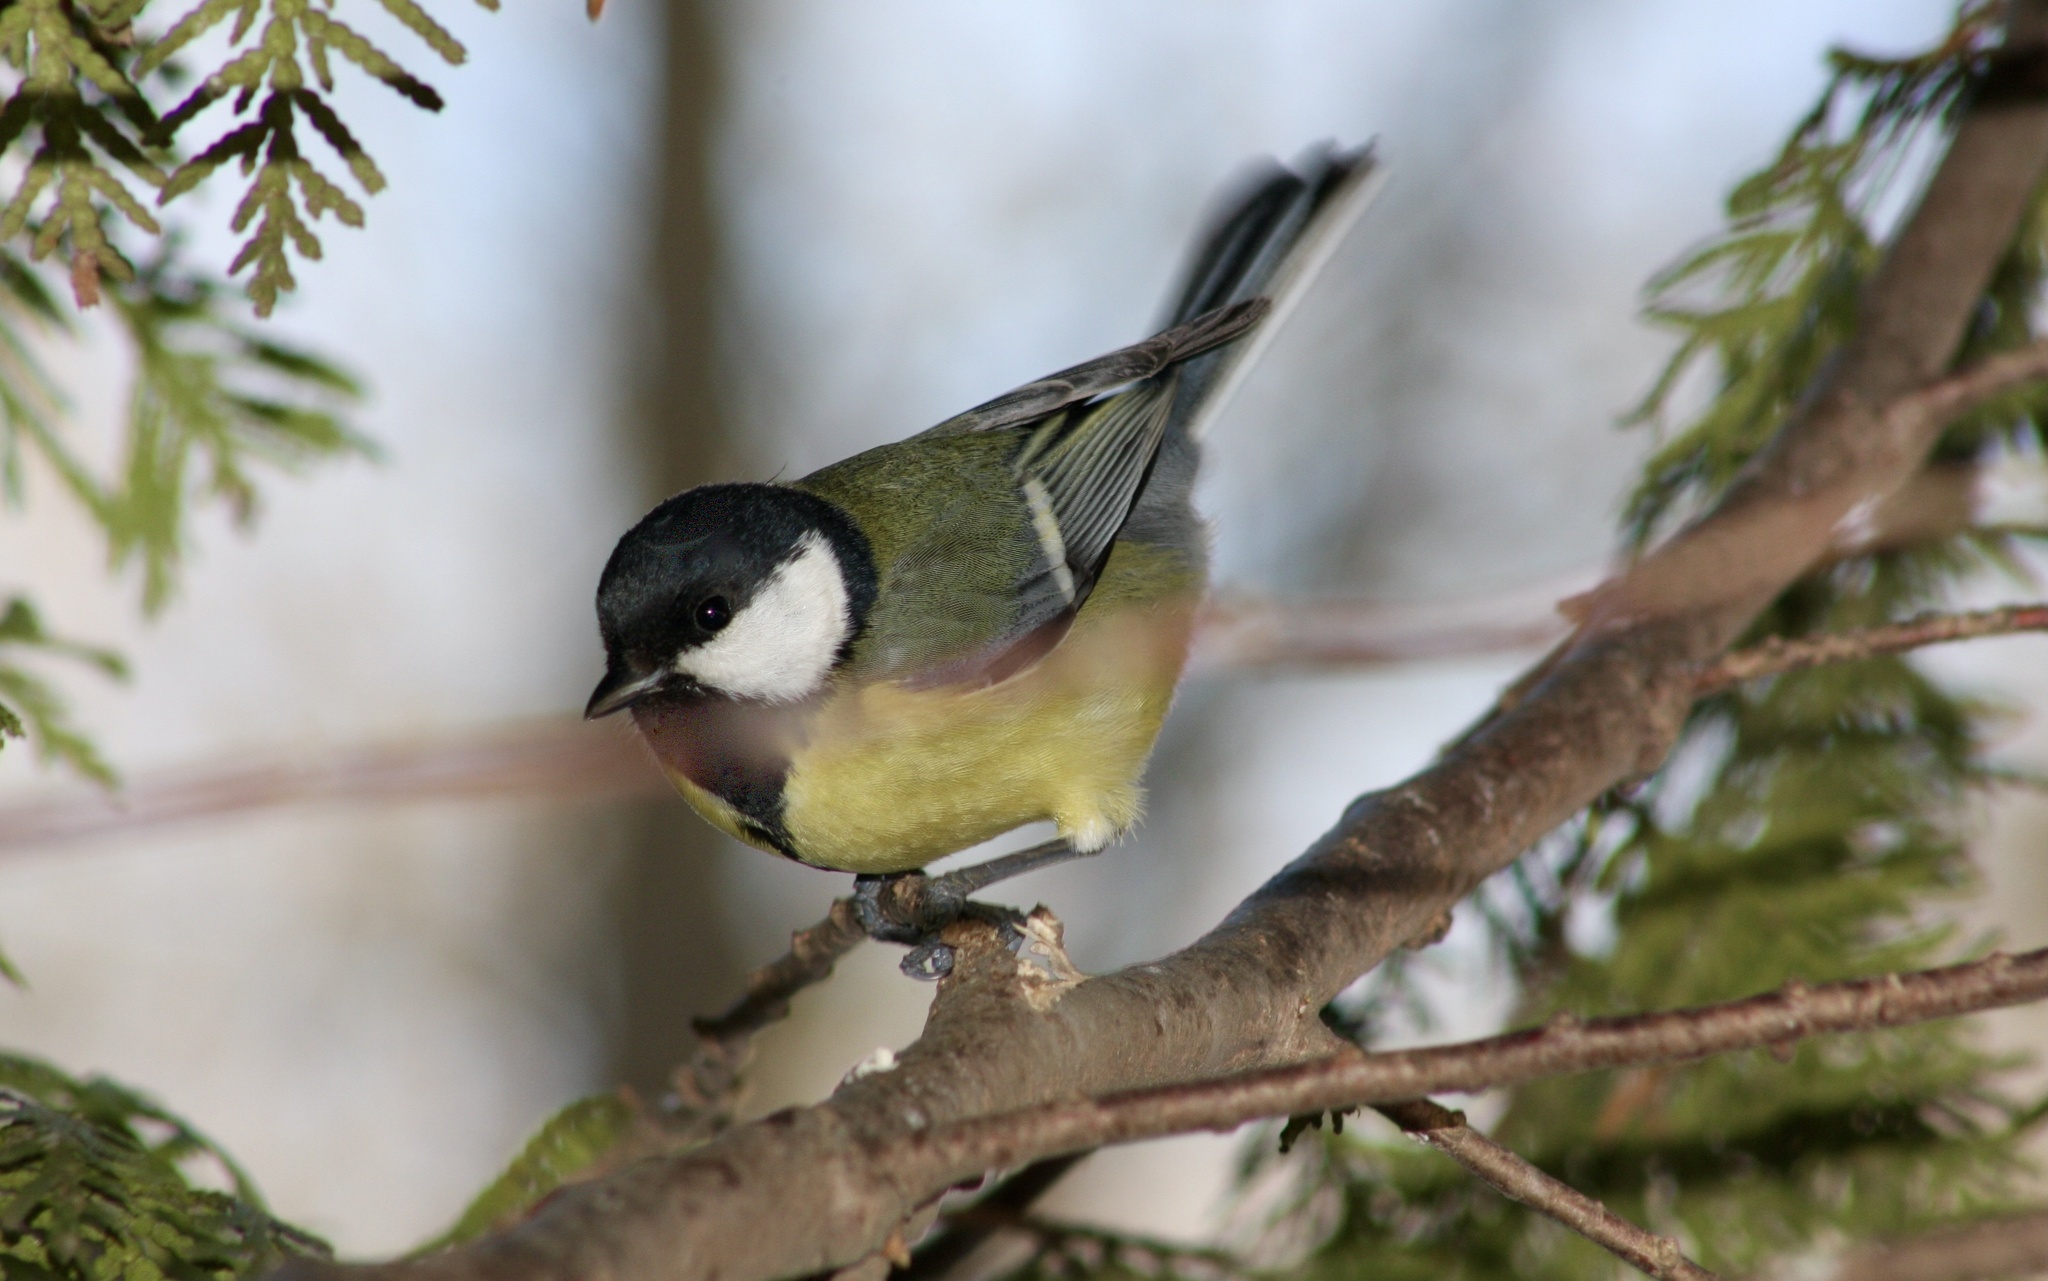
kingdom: Animalia
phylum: Chordata
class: Aves
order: Passeriformes
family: Paridae
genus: Parus
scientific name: Parus major
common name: Great tit
